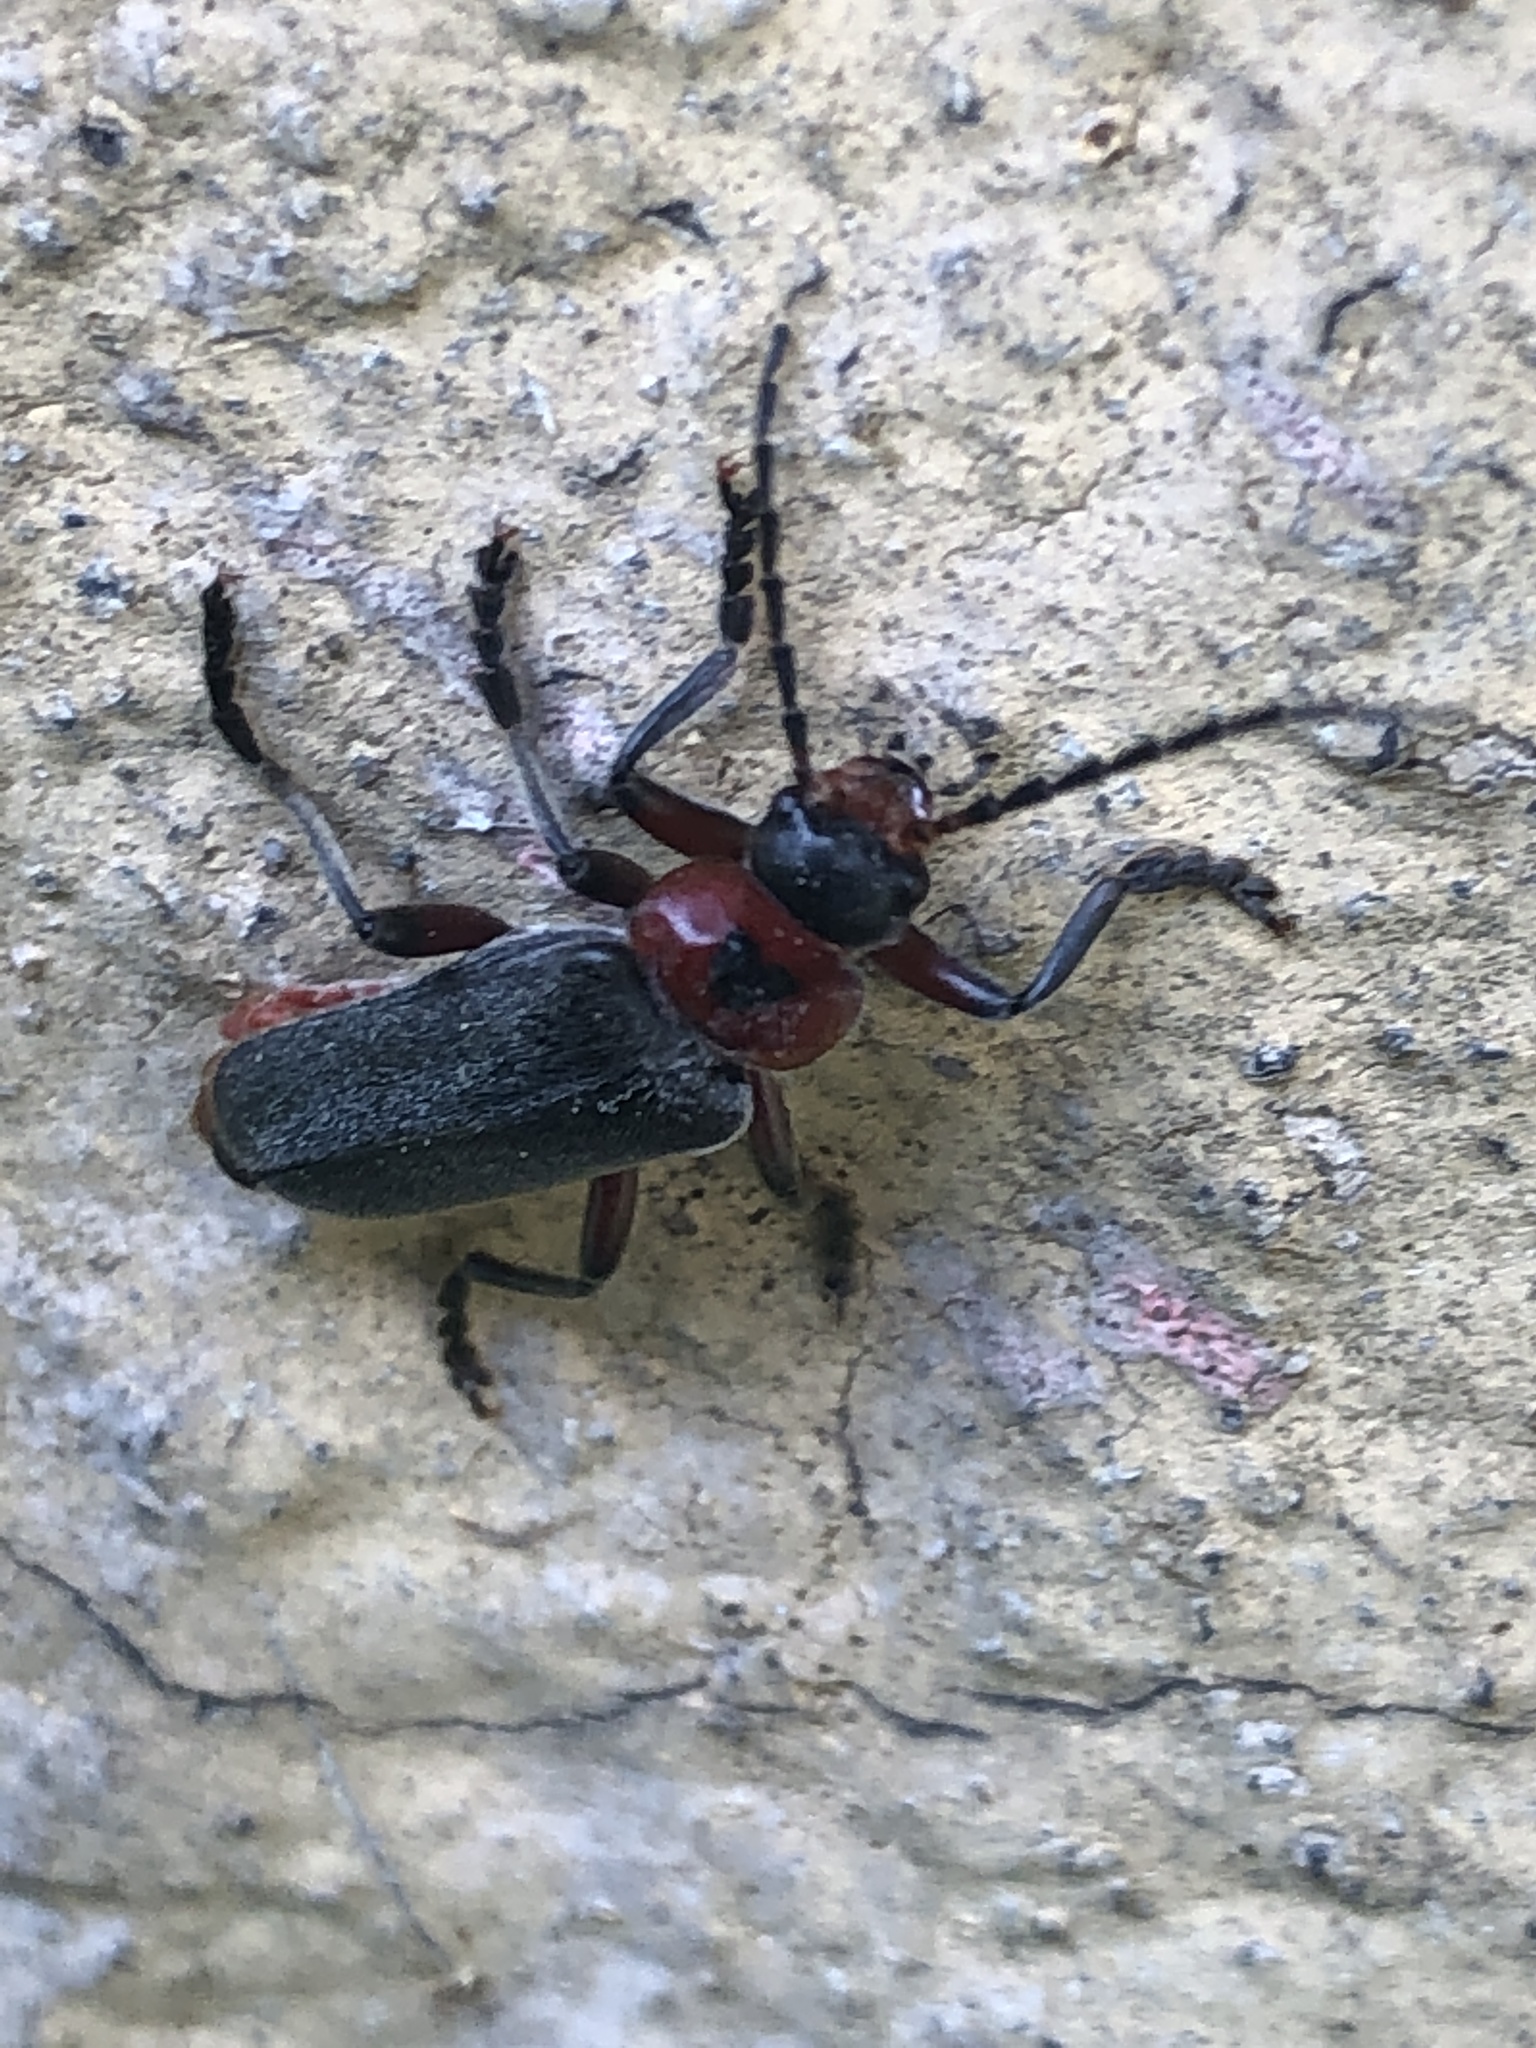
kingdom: Animalia
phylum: Arthropoda
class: Insecta
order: Coleoptera
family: Cantharidae
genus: Cantharis
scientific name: Cantharis rustica
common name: Soldier beetle
